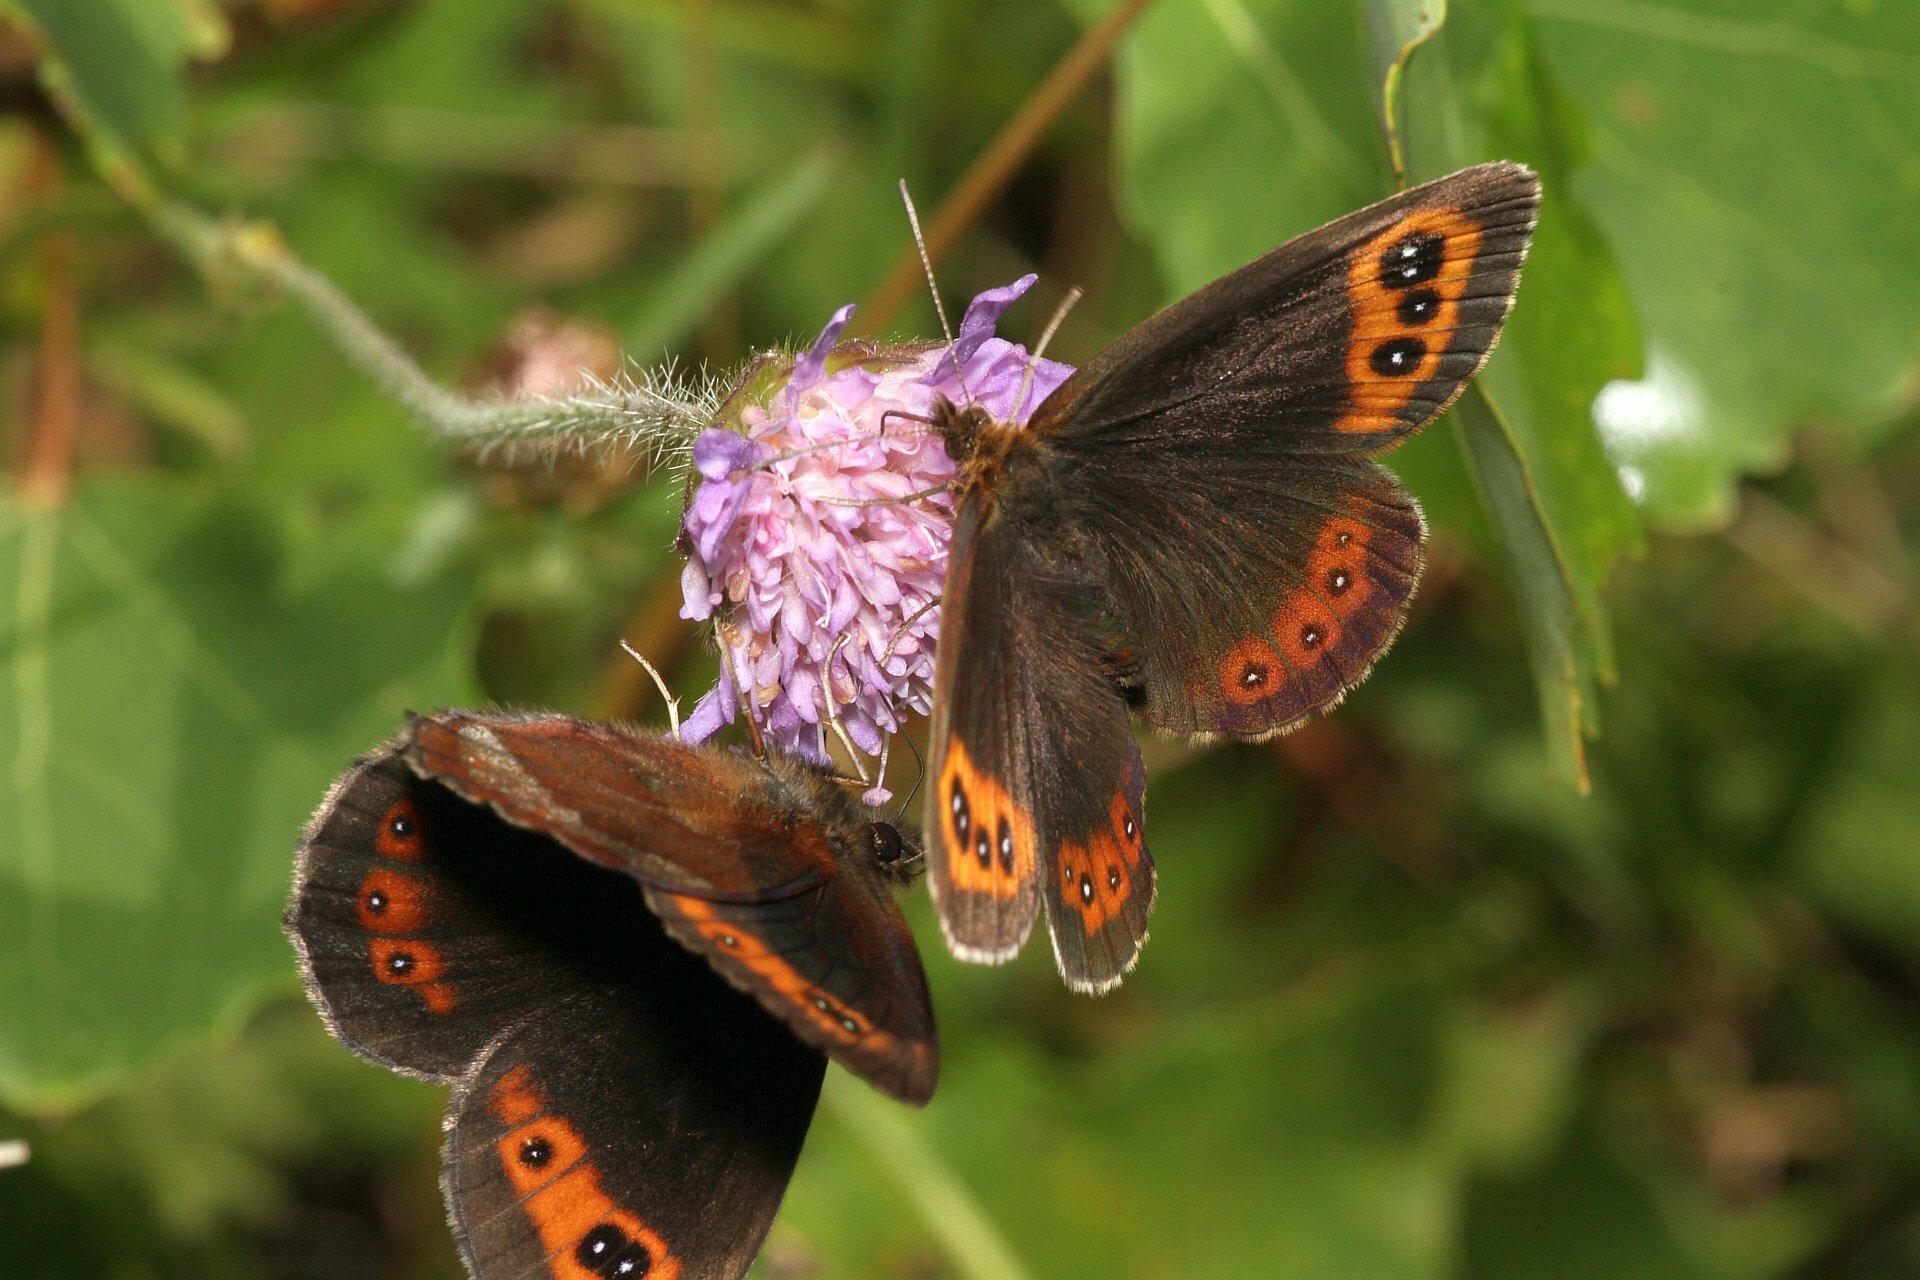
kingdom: Animalia
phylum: Arthropoda
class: Insecta
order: Lepidoptera
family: Nymphalidae
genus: Erebia
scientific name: Erebia aethiops
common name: Scotch argus
